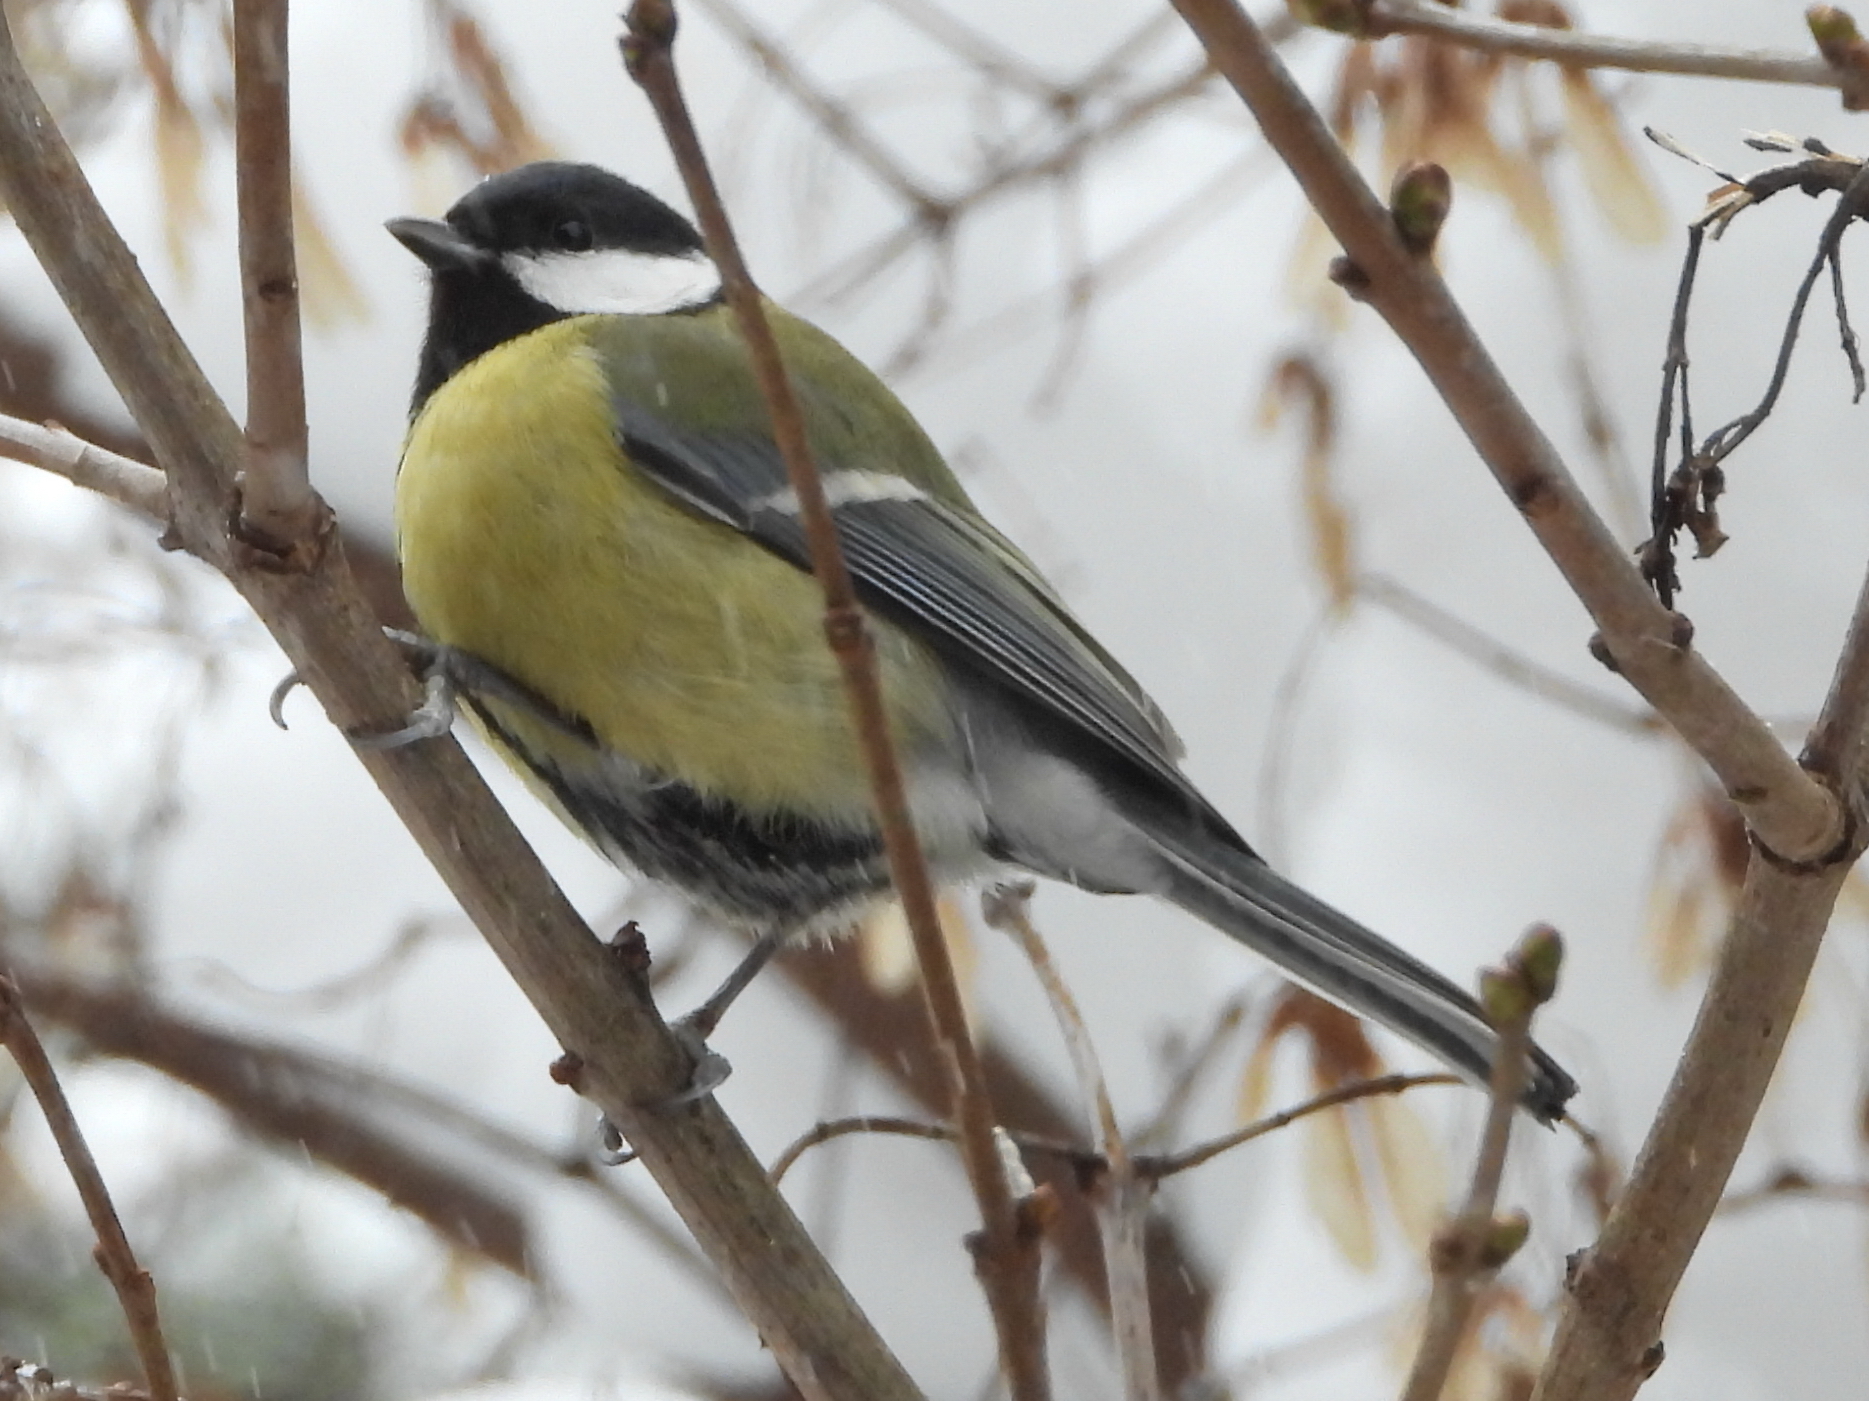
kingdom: Animalia
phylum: Chordata
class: Aves
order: Passeriformes
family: Paridae
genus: Parus
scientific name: Parus major
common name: Great tit
